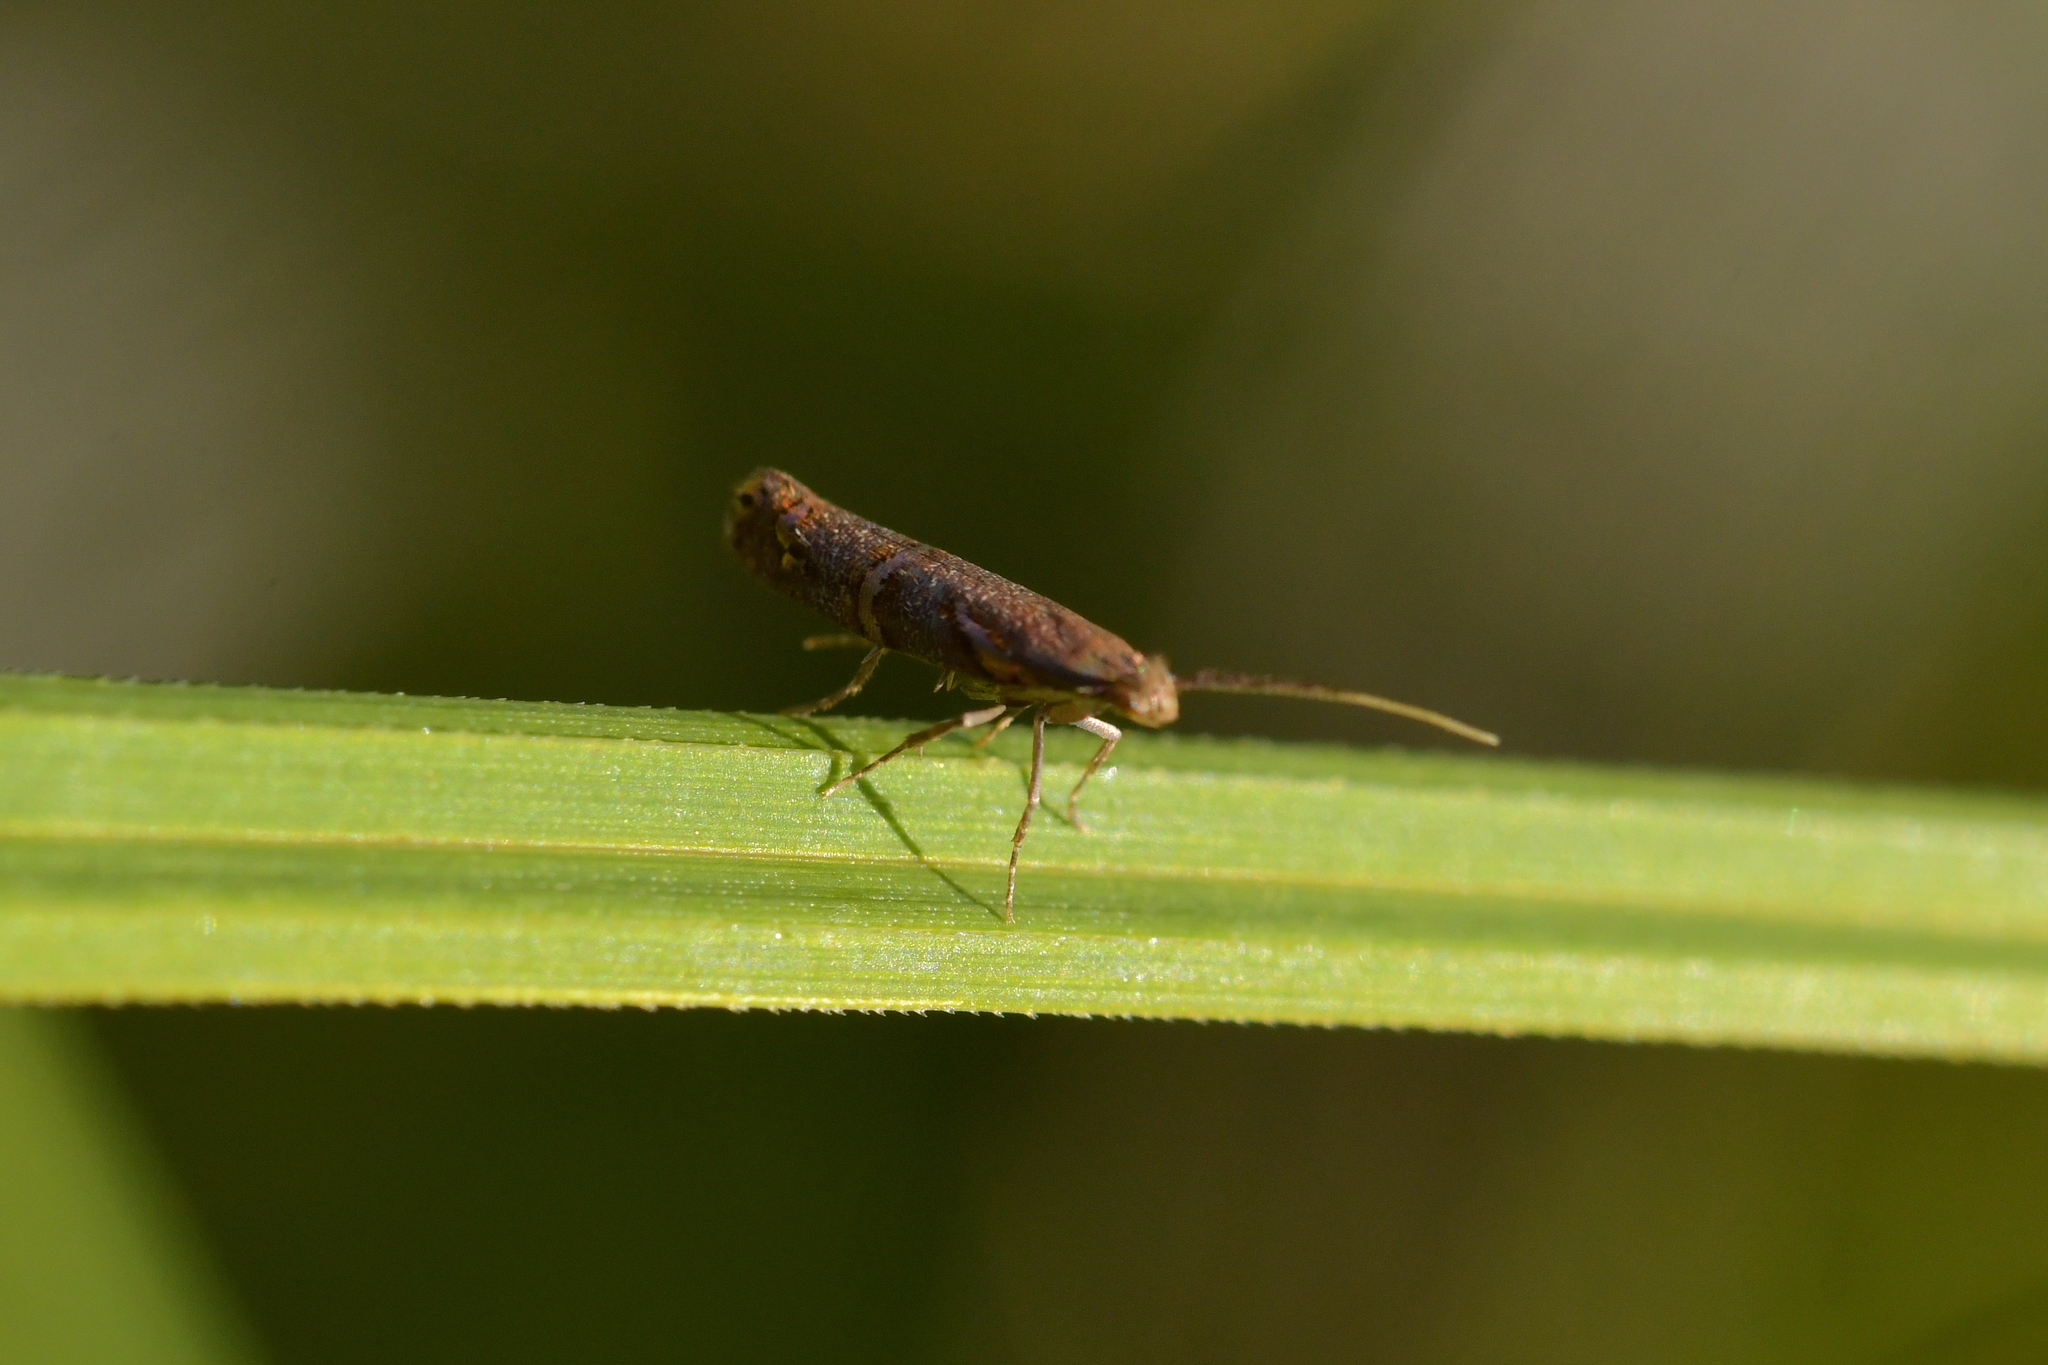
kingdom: Animalia
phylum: Arthropoda
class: Insecta
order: Lepidoptera
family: Plutellidae
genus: Protosynaema
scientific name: Protosynaema quaestuosa
